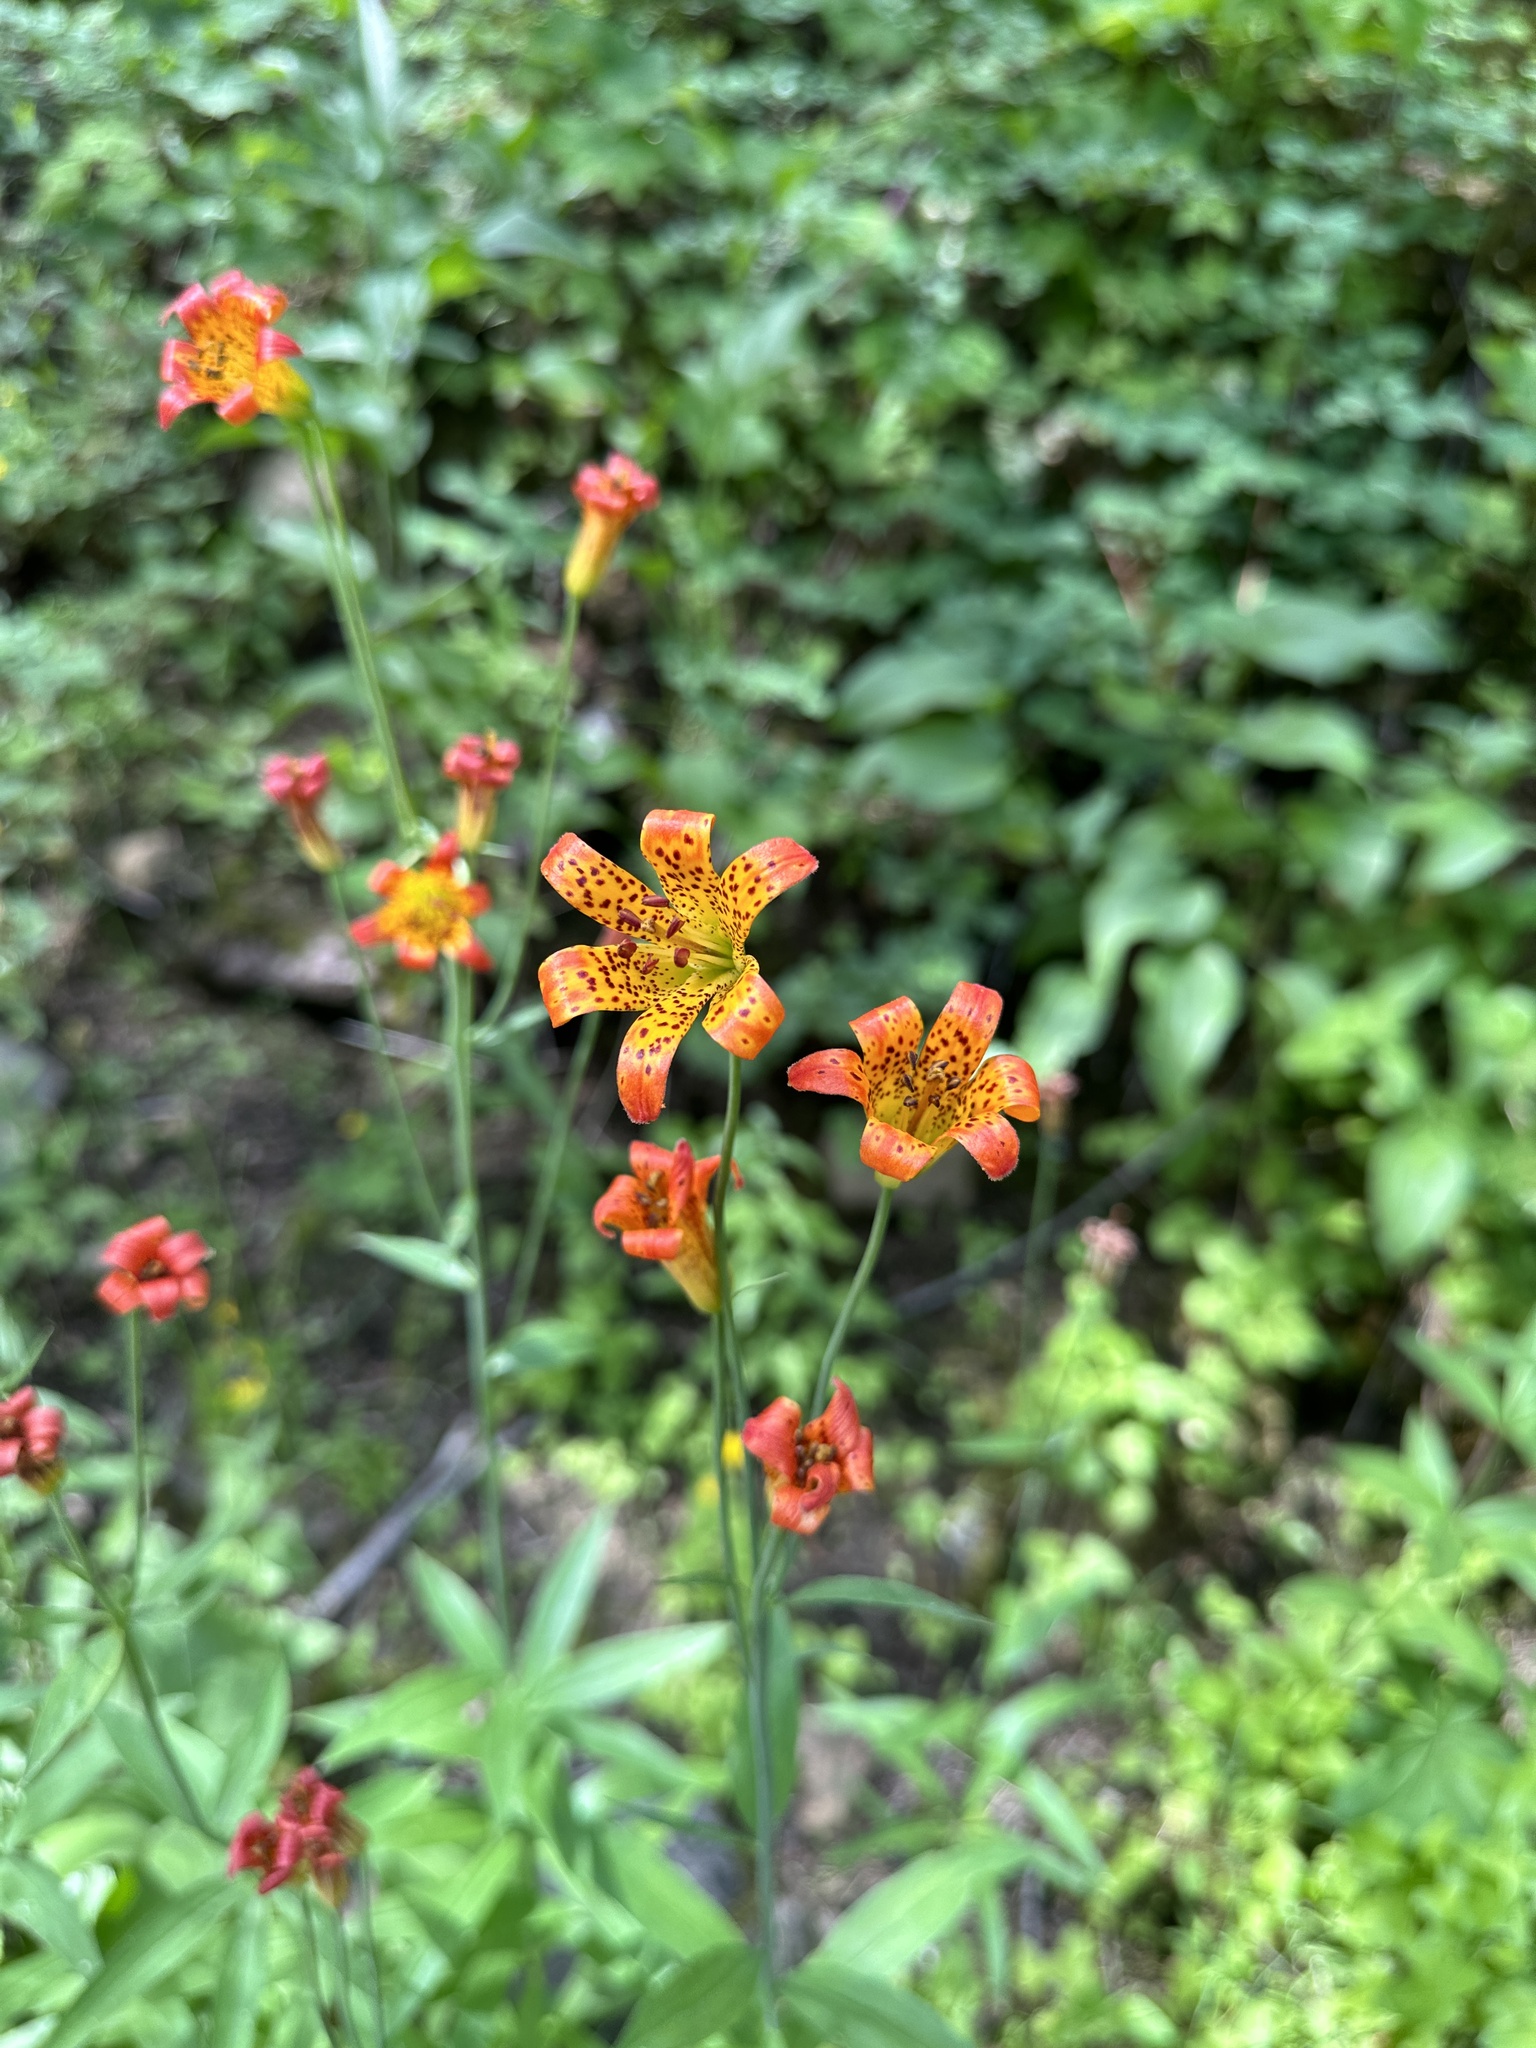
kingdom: Plantae
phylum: Tracheophyta
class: Liliopsida
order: Liliales
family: Liliaceae
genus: Lilium
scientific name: Lilium parvum
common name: Alpine lily
